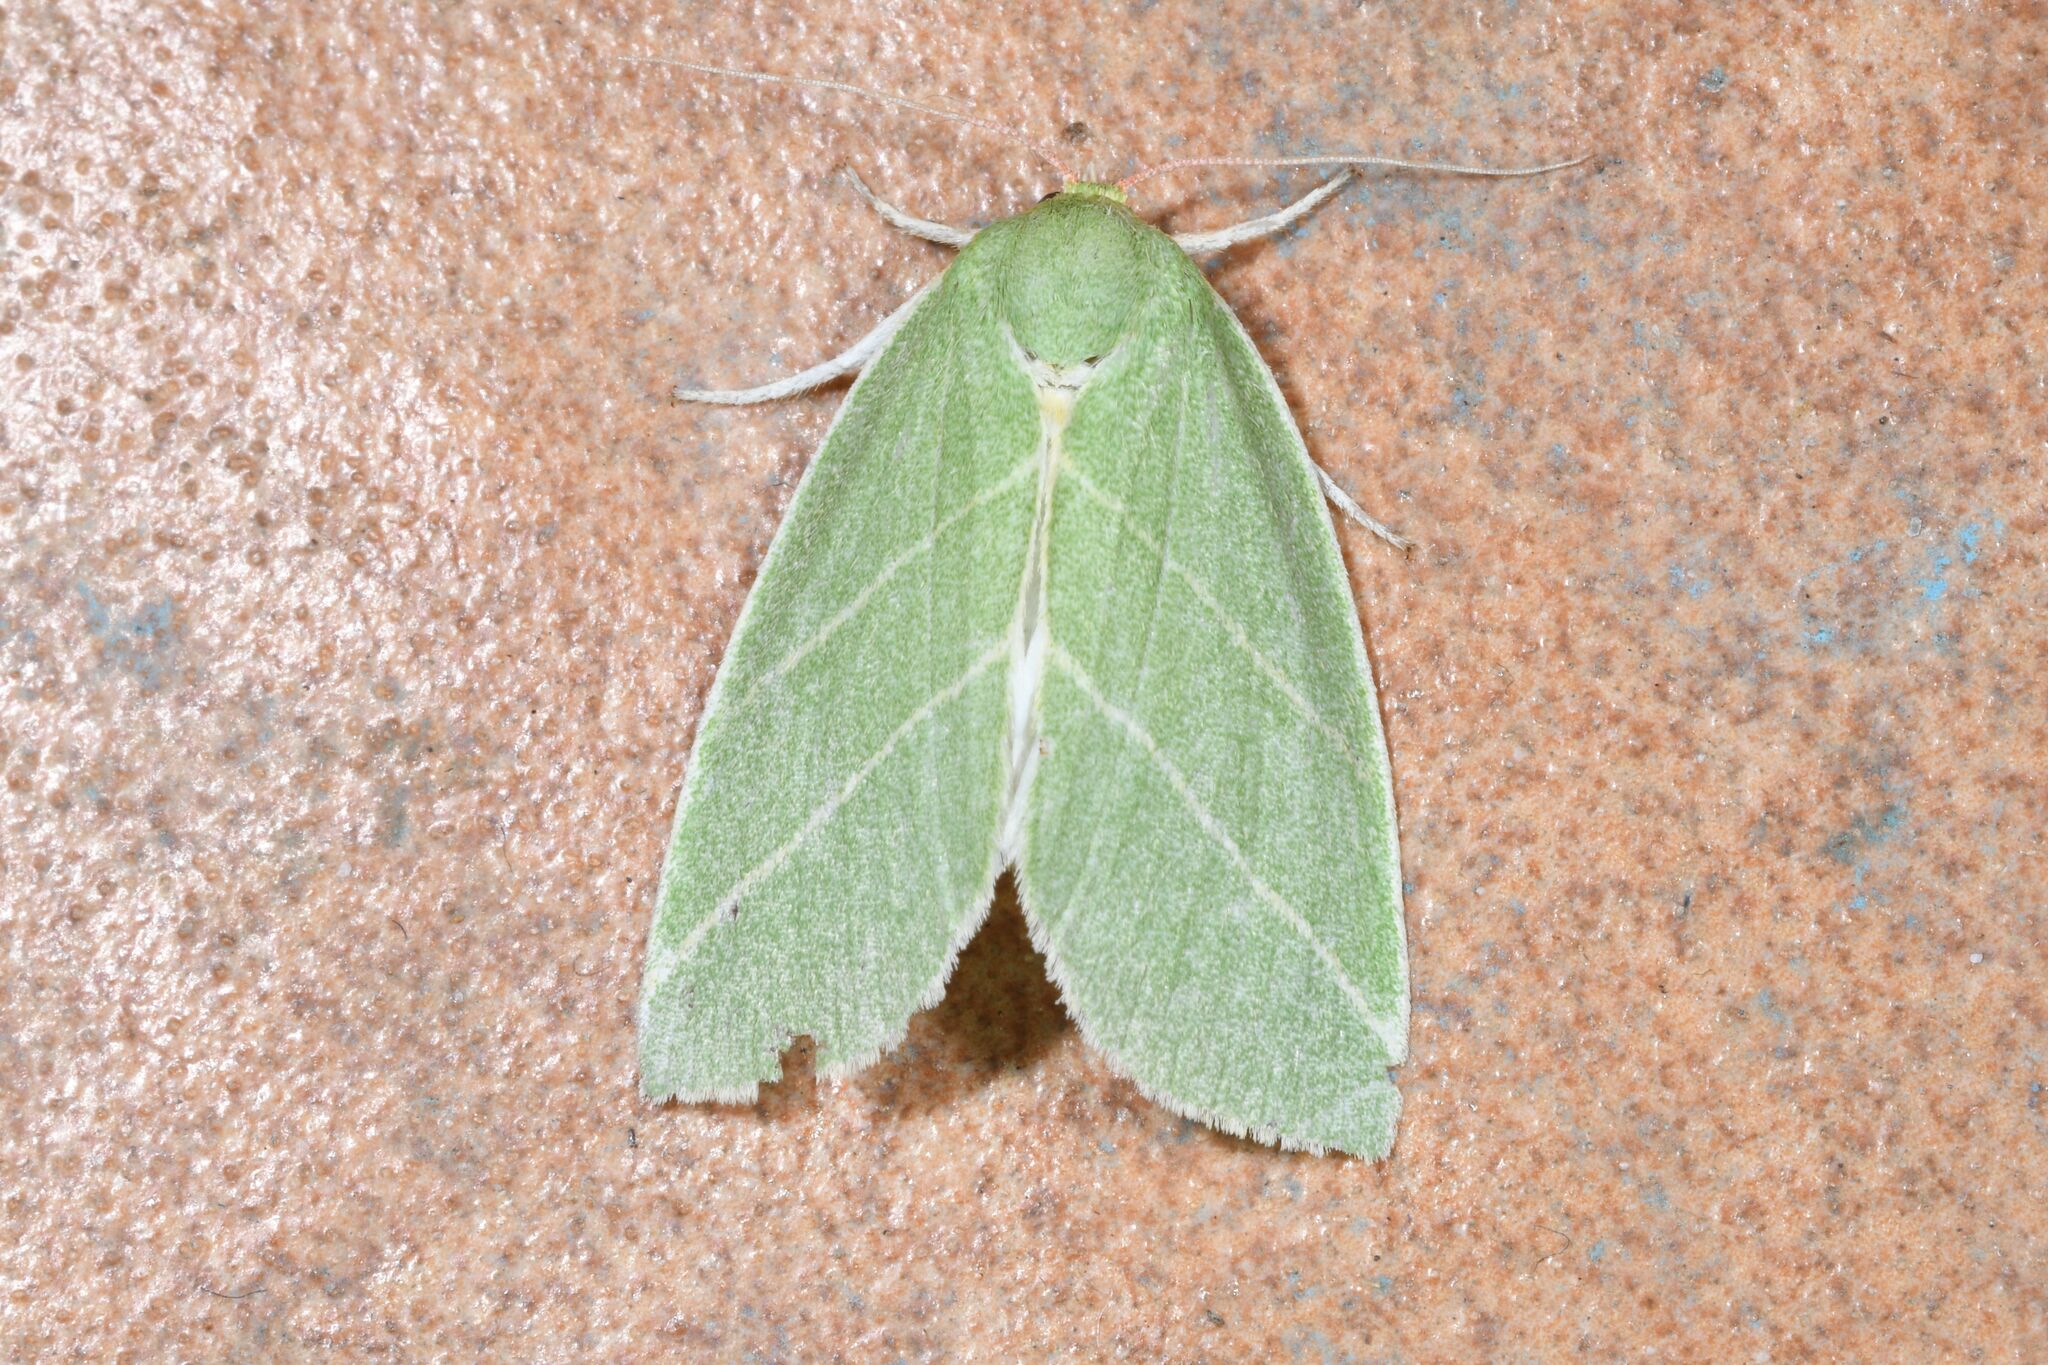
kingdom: Animalia
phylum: Arthropoda
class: Insecta
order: Lepidoptera
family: Nolidae
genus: Bena
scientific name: Bena bicolorana
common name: Scarce silver-lines
